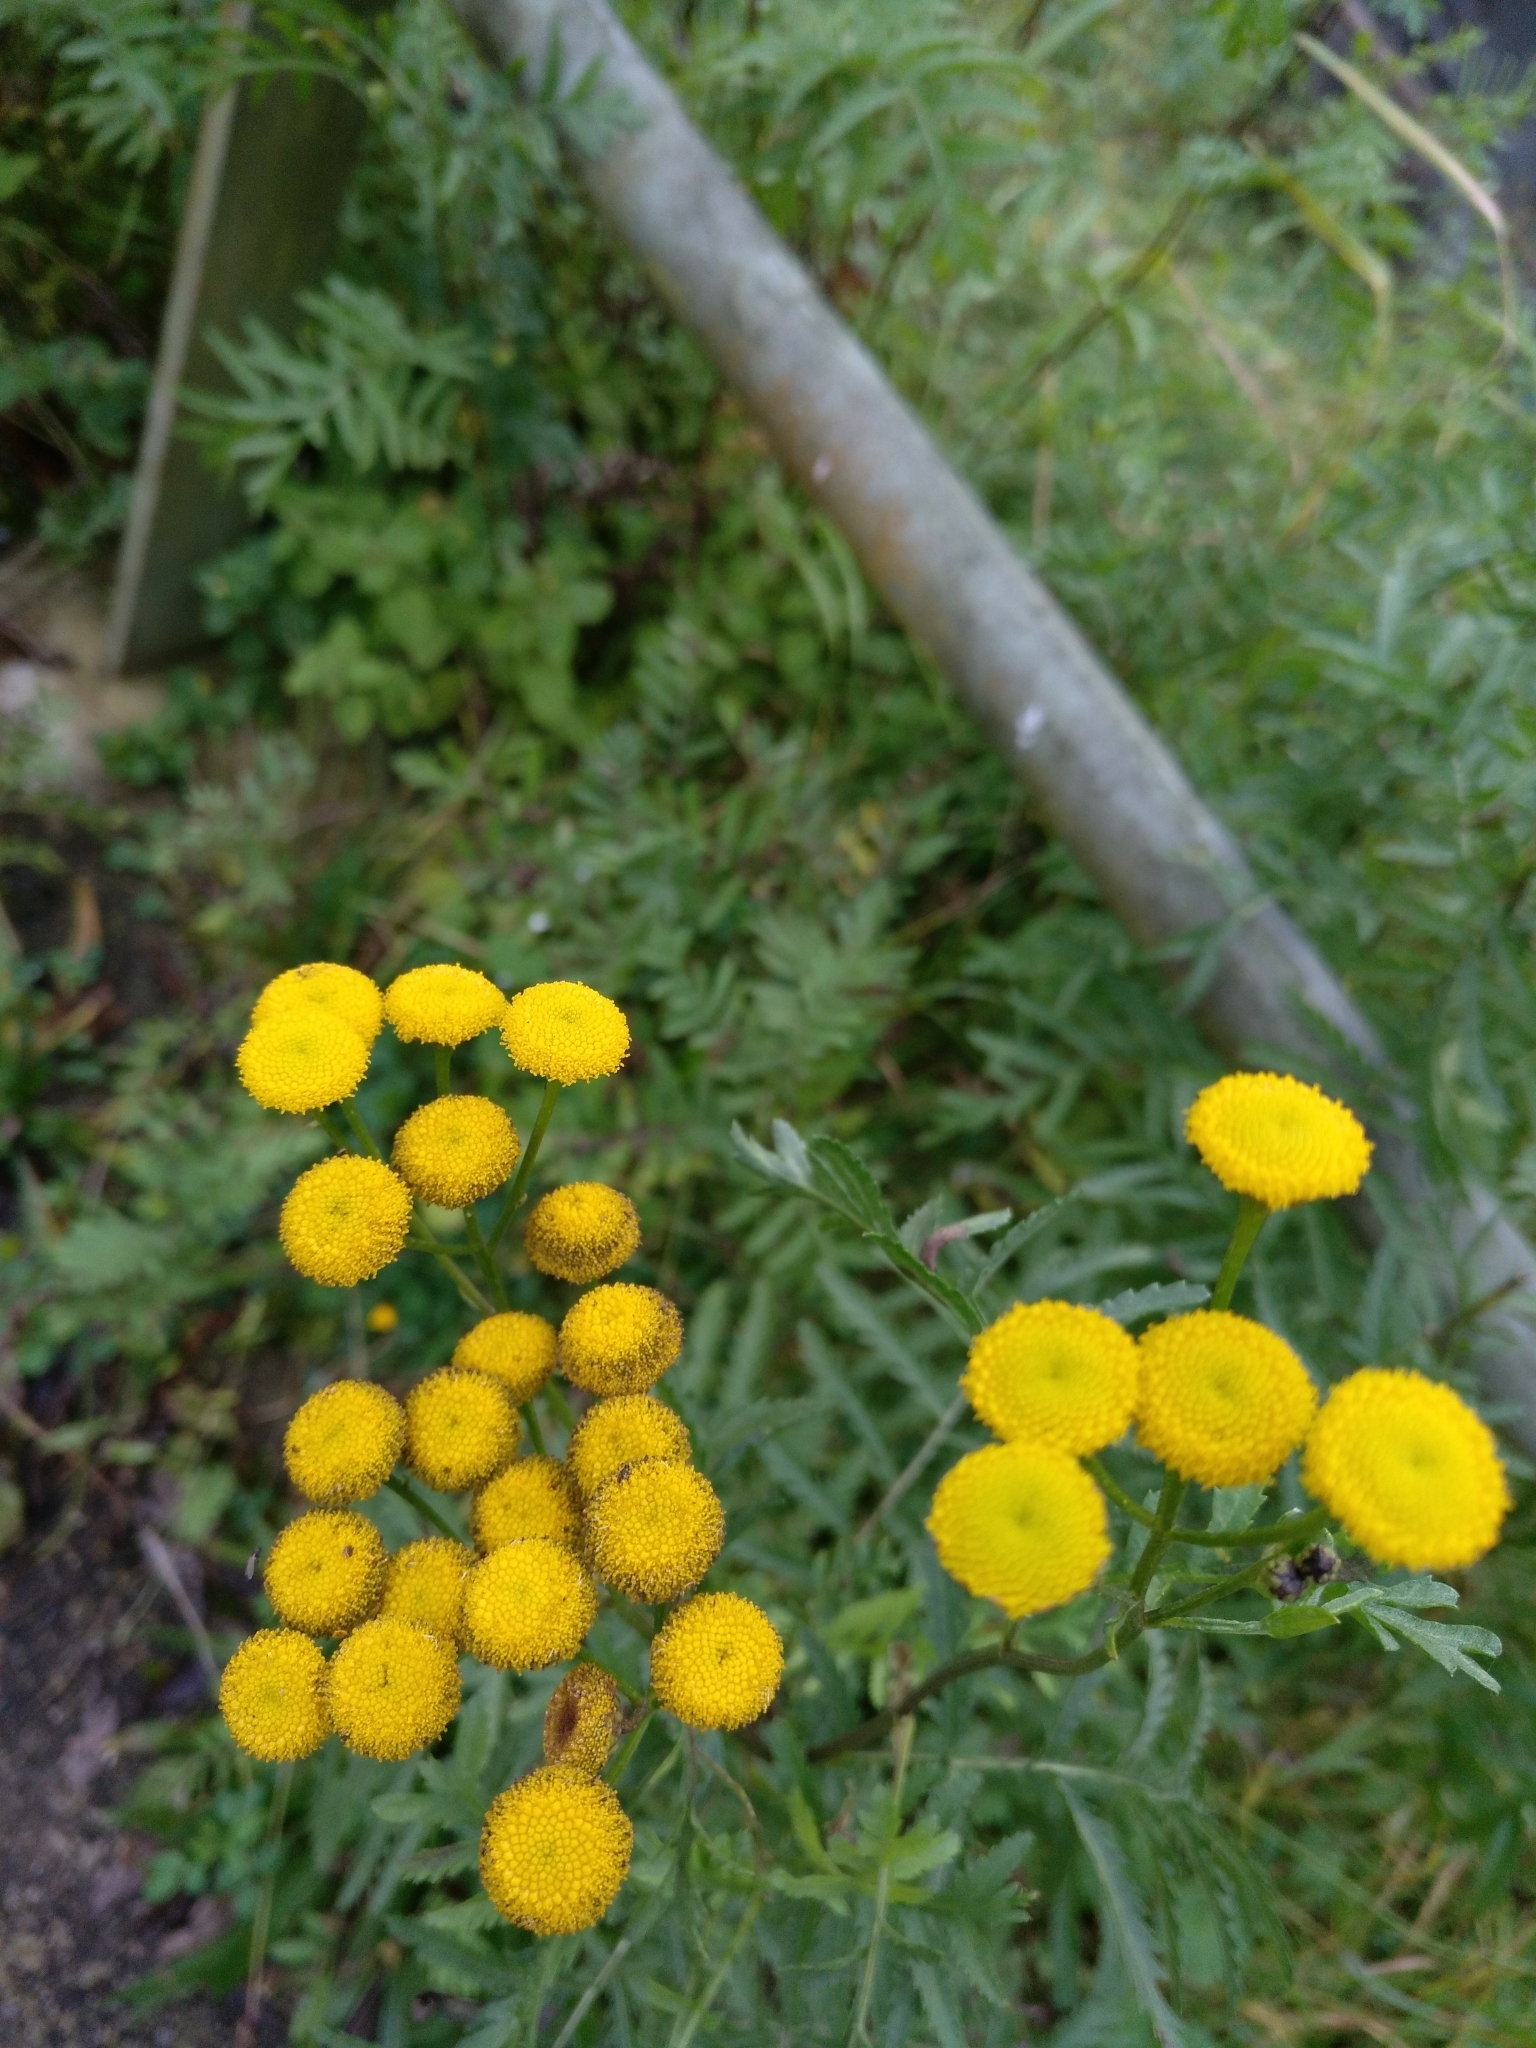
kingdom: Plantae
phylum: Tracheophyta
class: Magnoliopsida
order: Asterales
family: Asteraceae
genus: Tanacetum
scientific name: Tanacetum vulgare
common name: Common tansy
